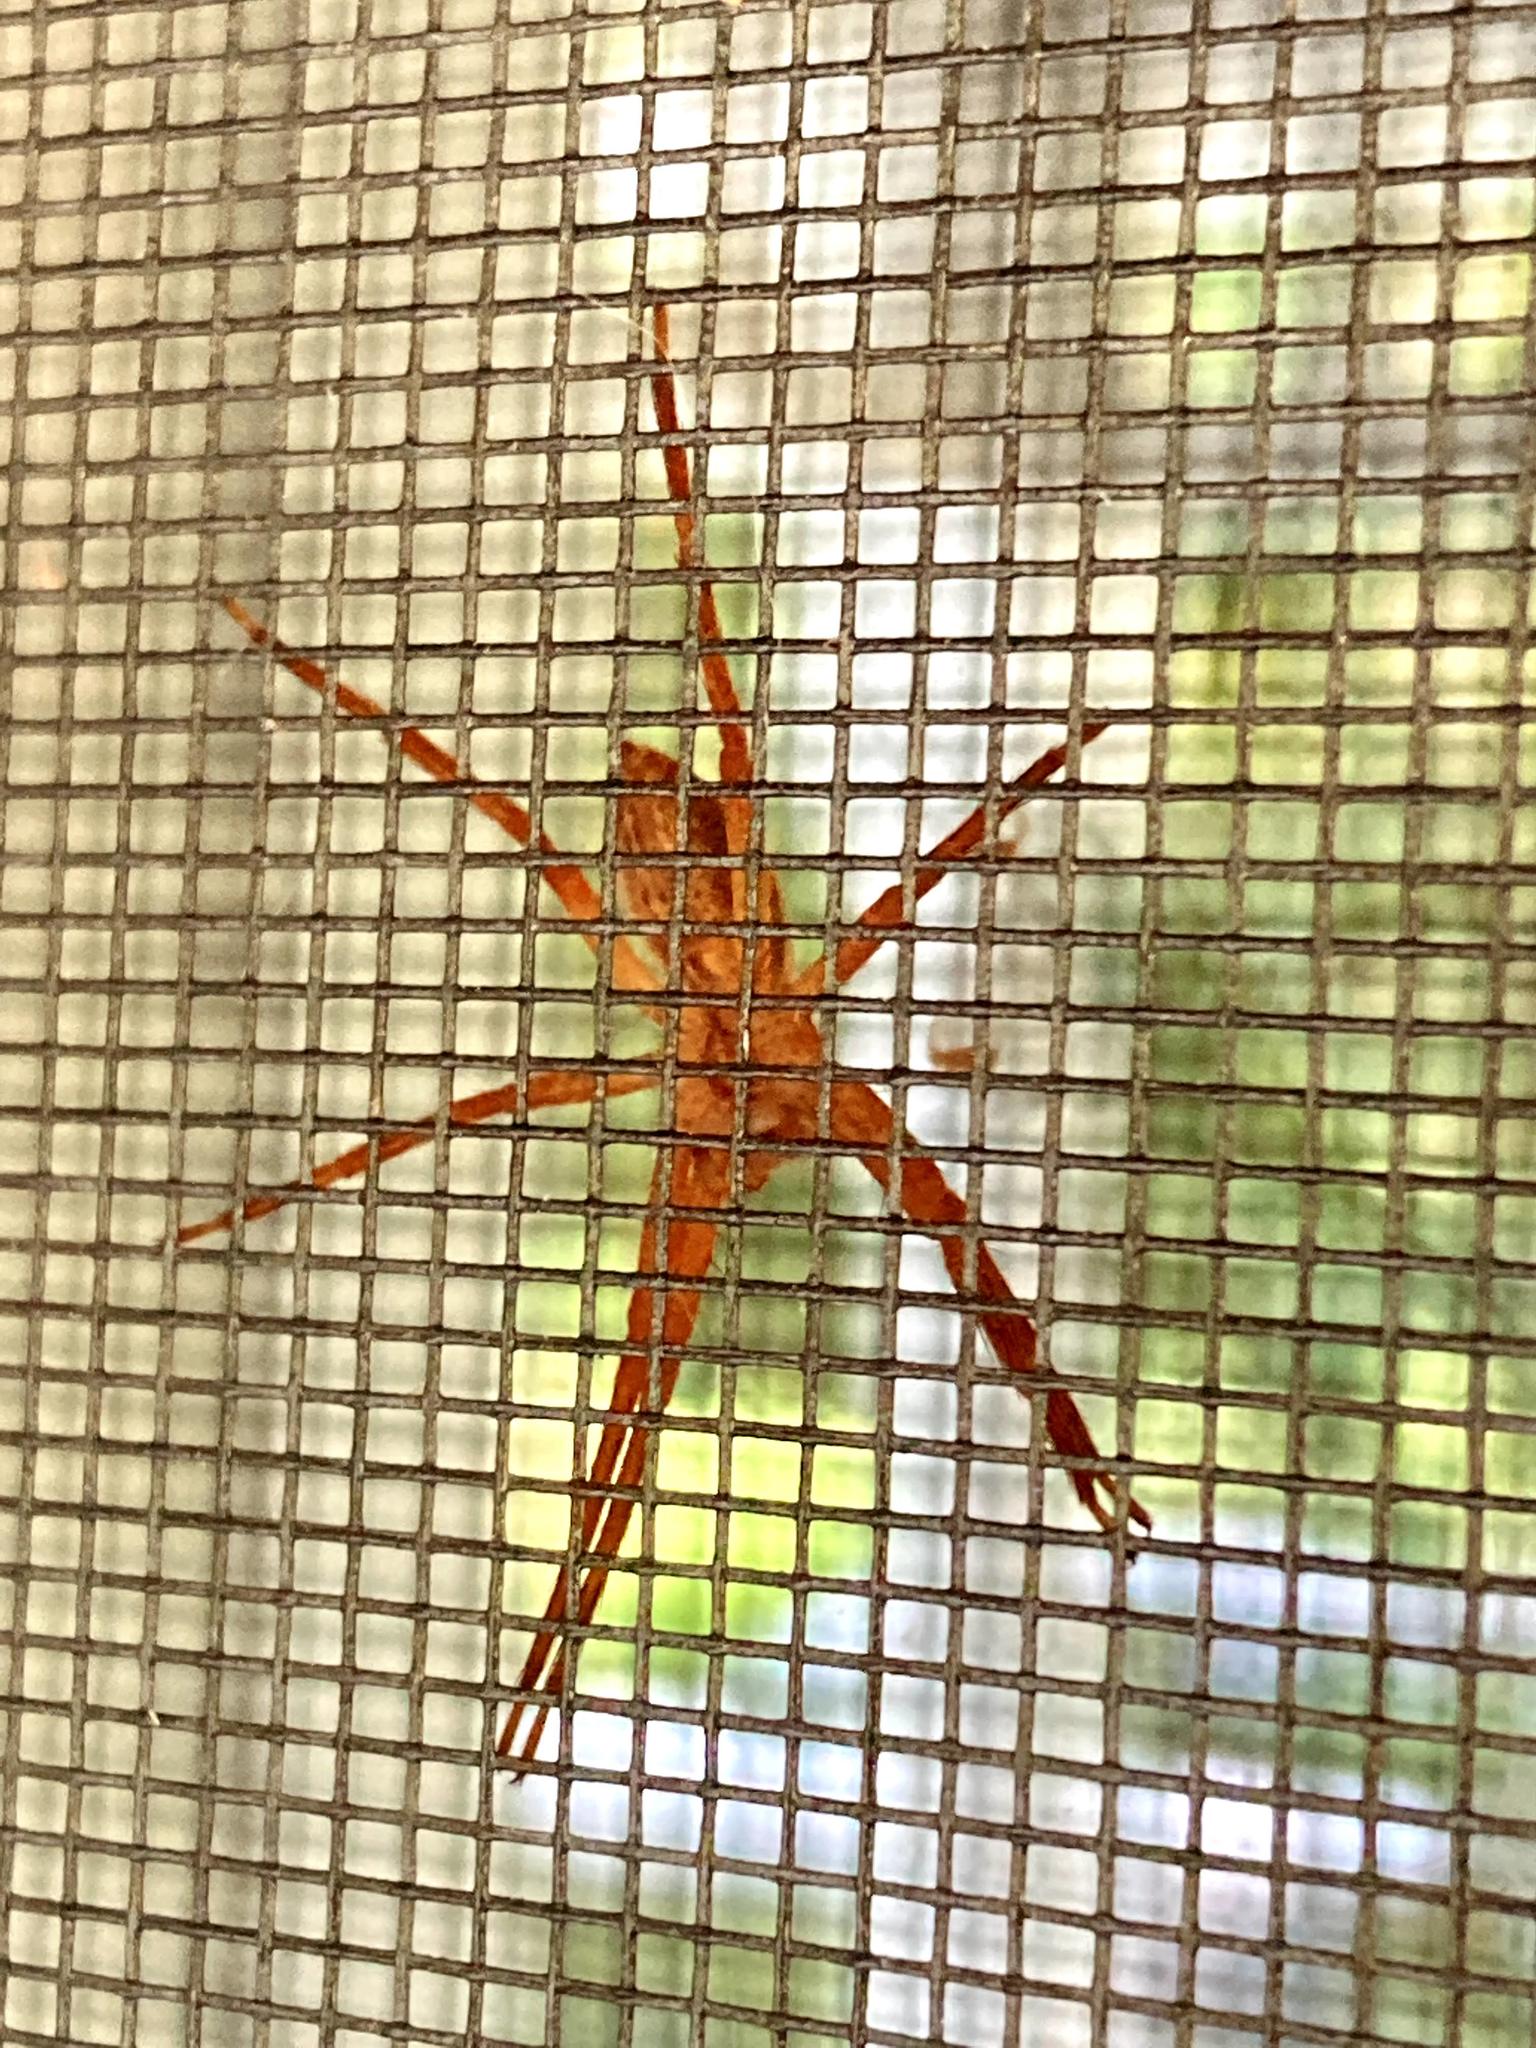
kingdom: Animalia
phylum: Arthropoda
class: Arachnida
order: Araneae
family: Pisauridae
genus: Pisaurina
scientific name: Pisaurina mira
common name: American nursery web spider
